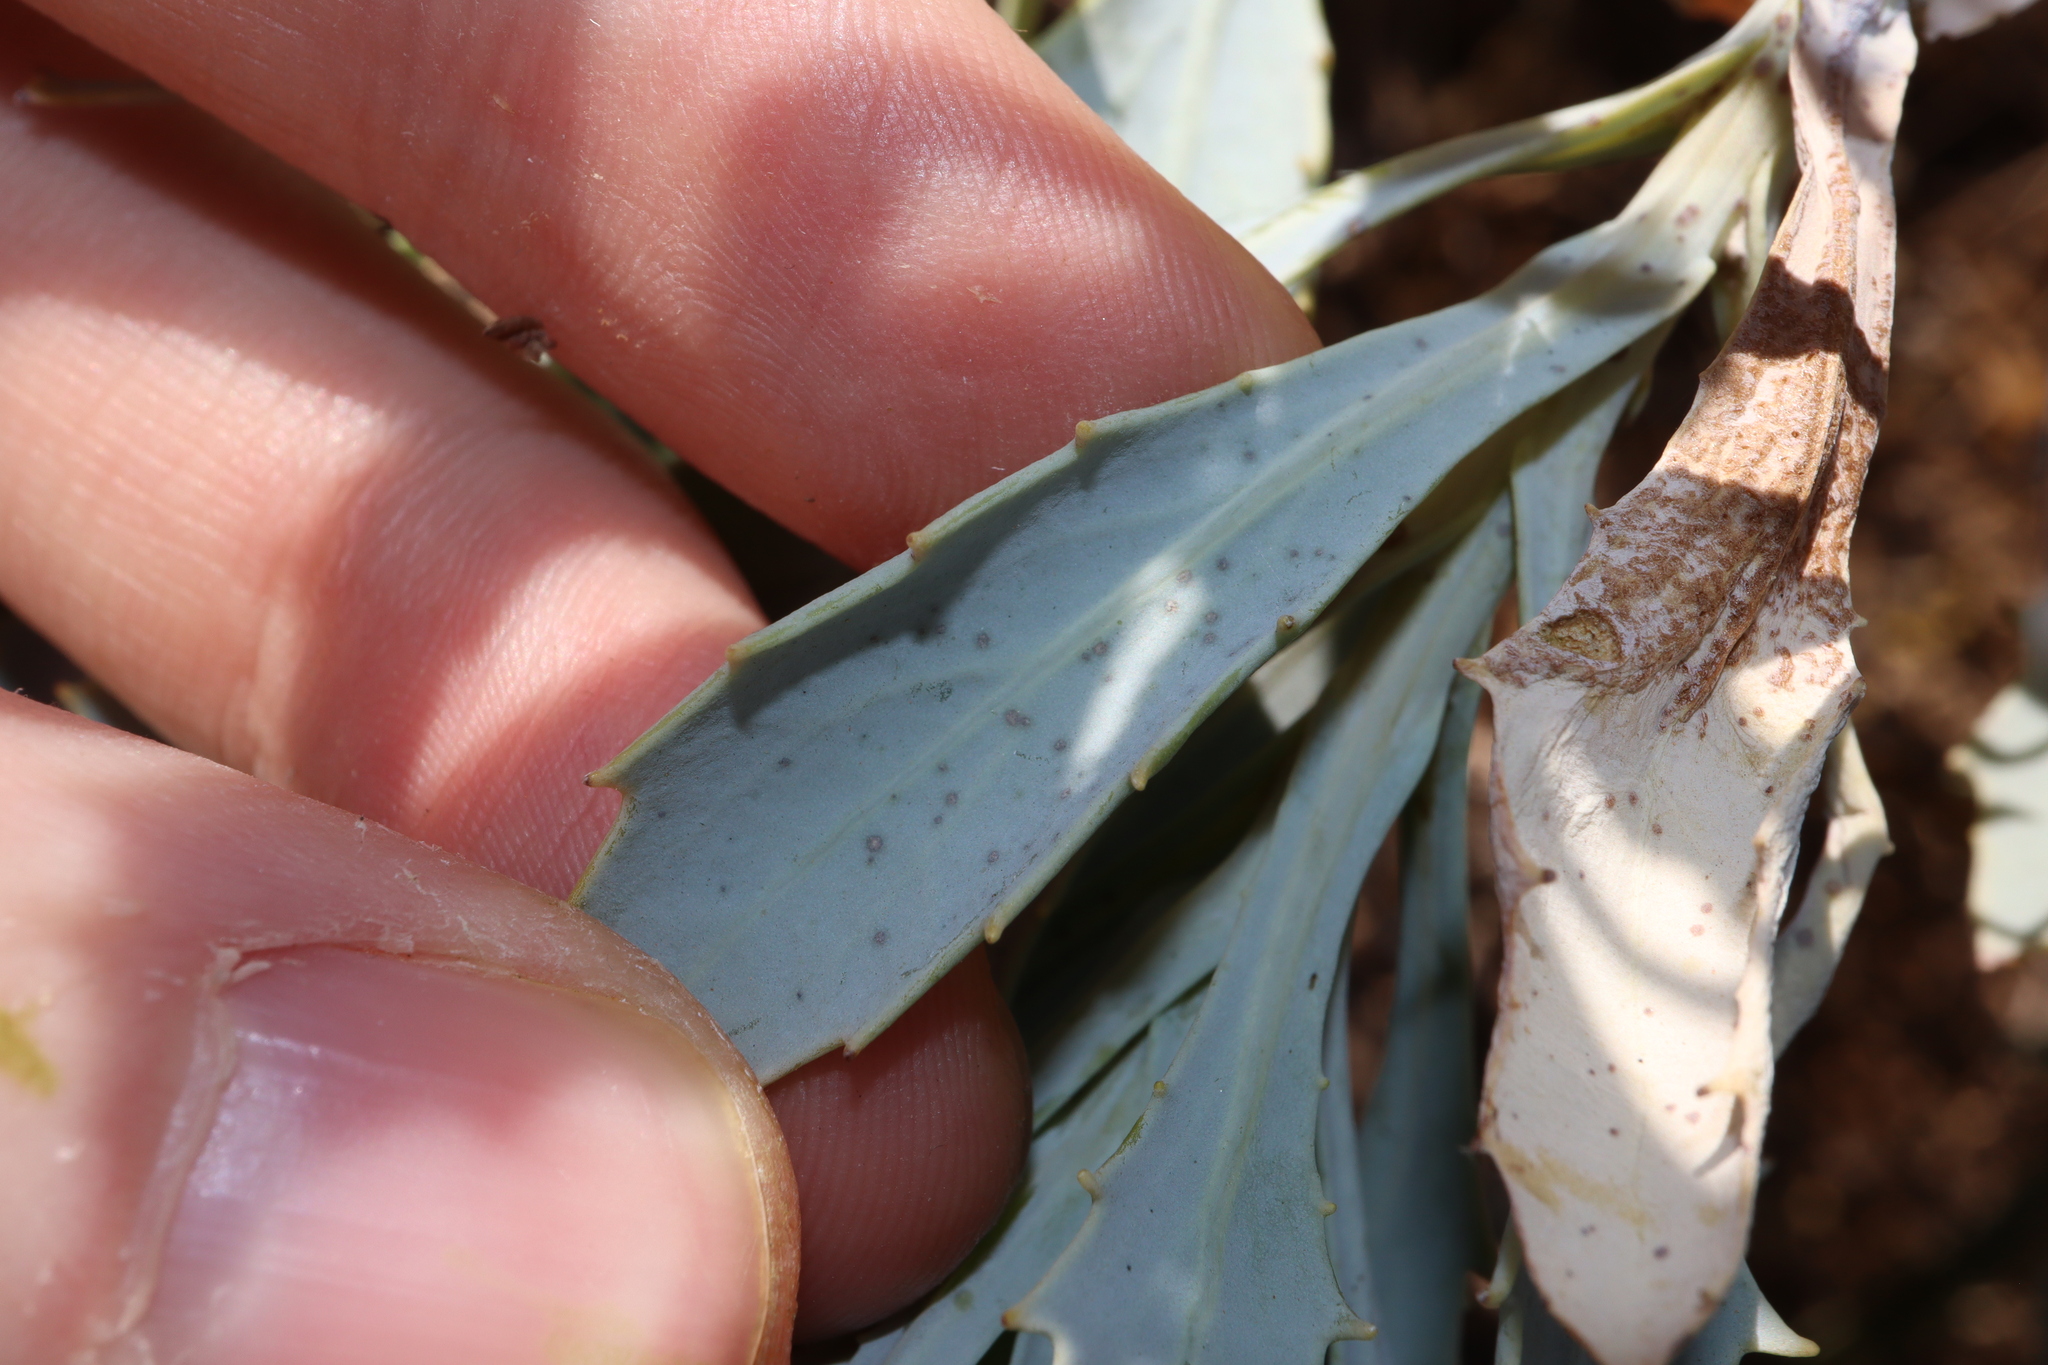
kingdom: Plantae
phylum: Tracheophyta
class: Magnoliopsida
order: Asterales
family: Asteraceae
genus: Senecio
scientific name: Senecio magnificus
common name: Camelweed
